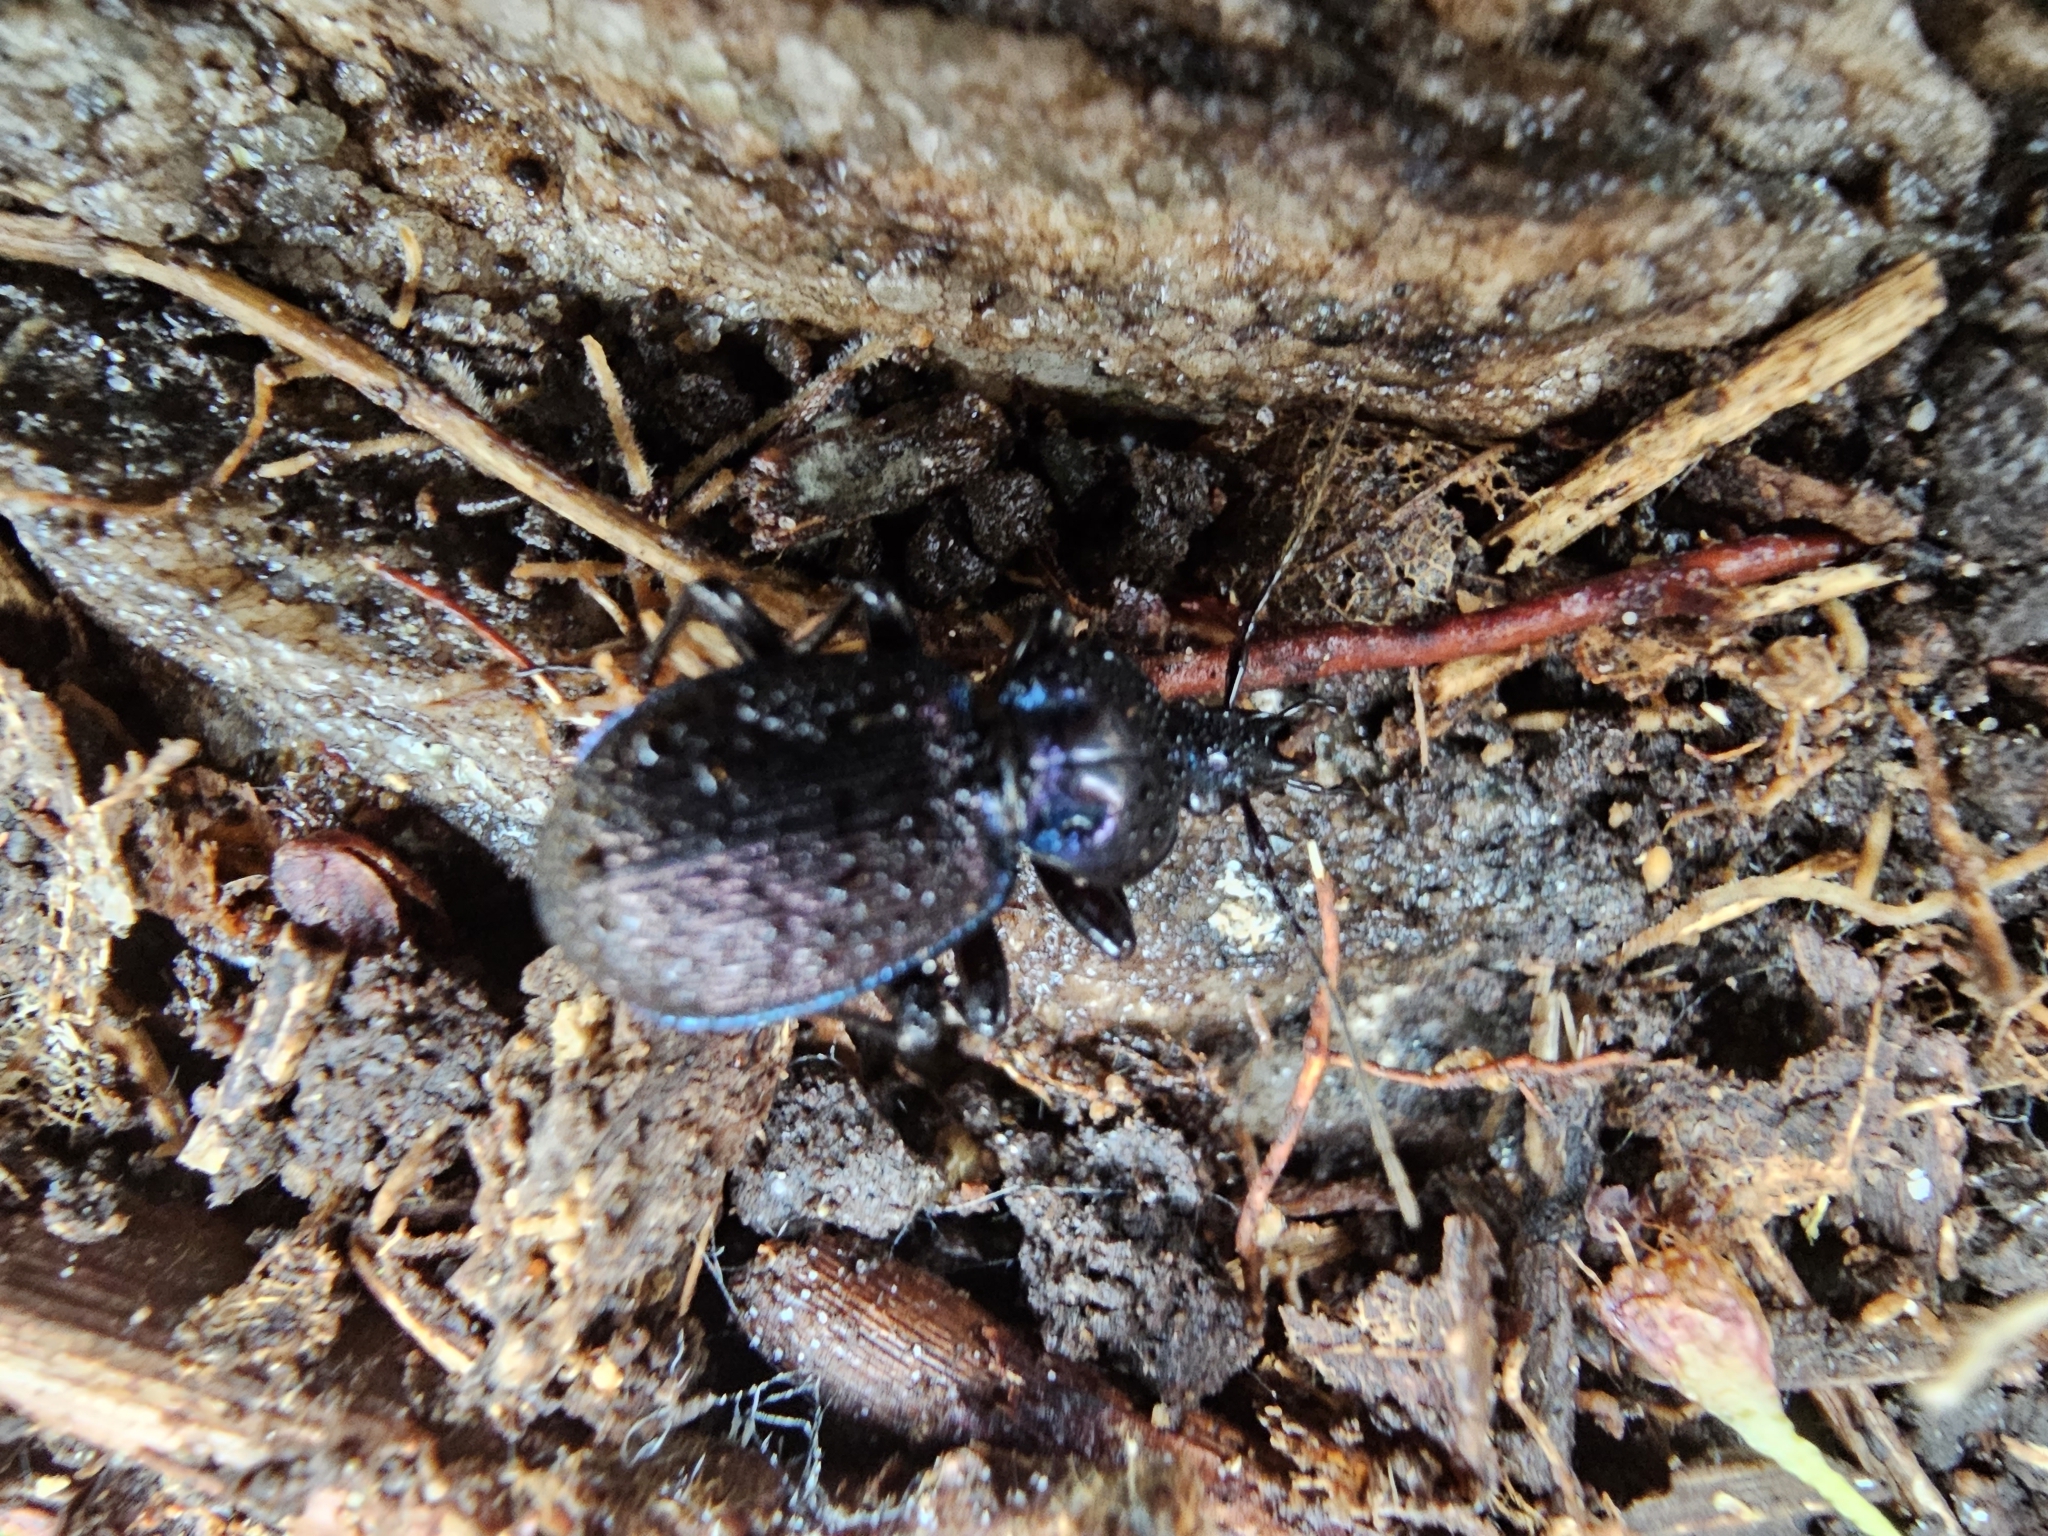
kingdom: Animalia
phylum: Arthropoda
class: Insecta
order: Coleoptera
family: Carabidae
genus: Sphaeroderus
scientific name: Sphaeroderus stenostomus
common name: Small snail-eating ground beetle
